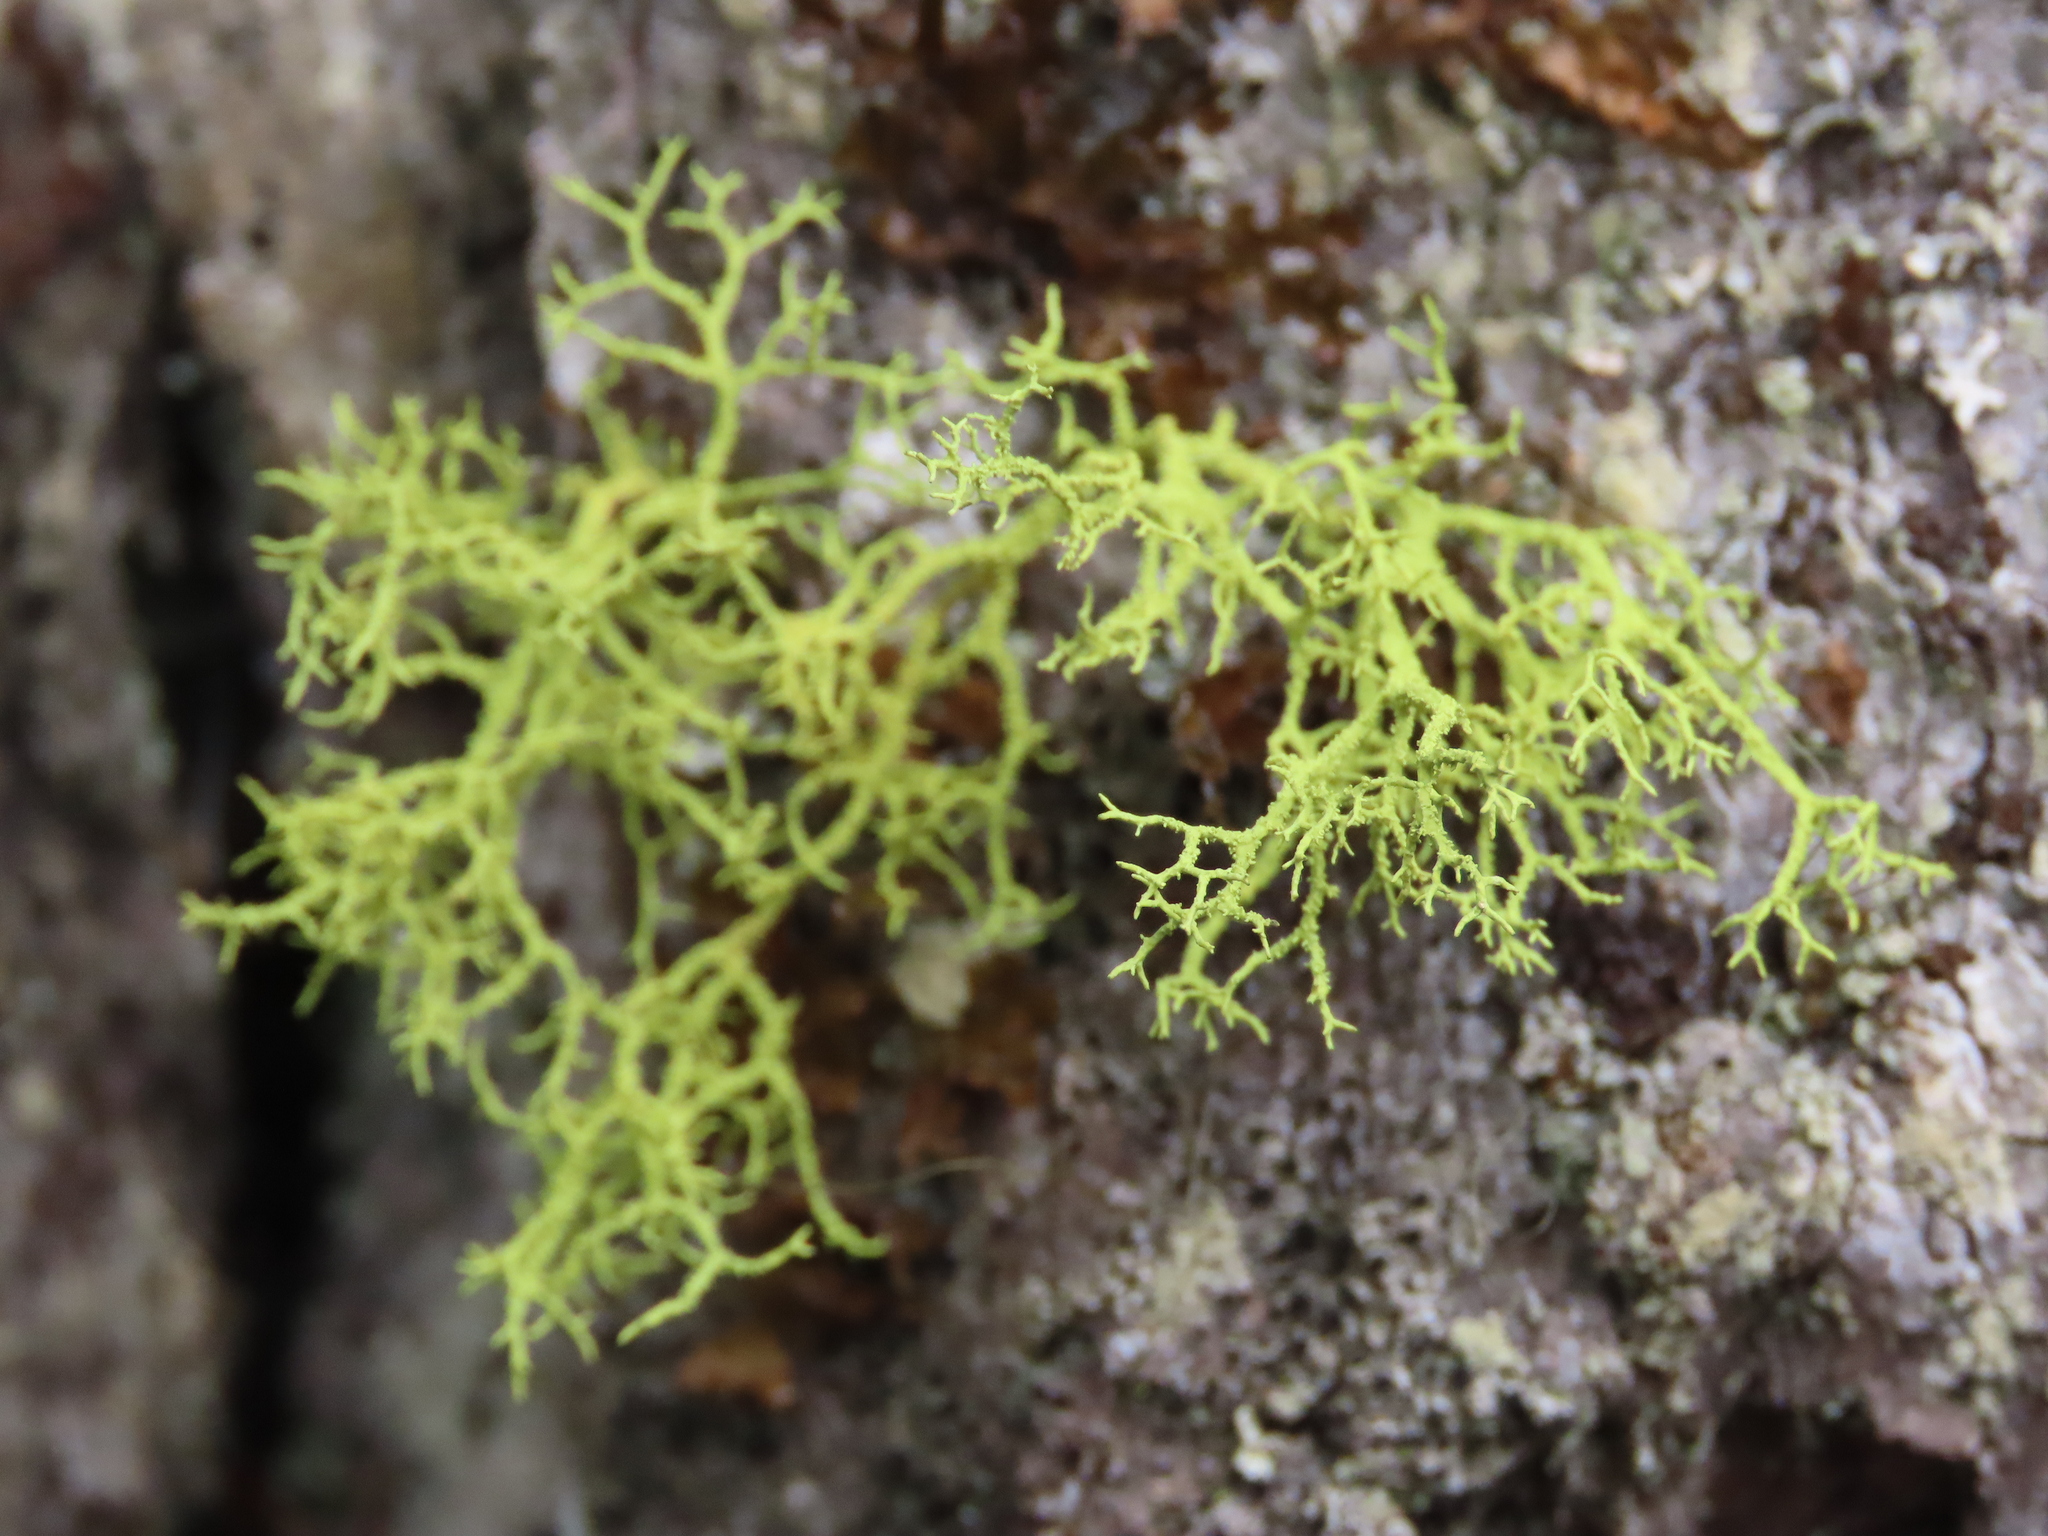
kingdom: Fungi
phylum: Ascomycota
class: Lecanoromycetes
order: Lecanorales
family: Parmeliaceae
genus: Letharia
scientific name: Letharia vulpina
